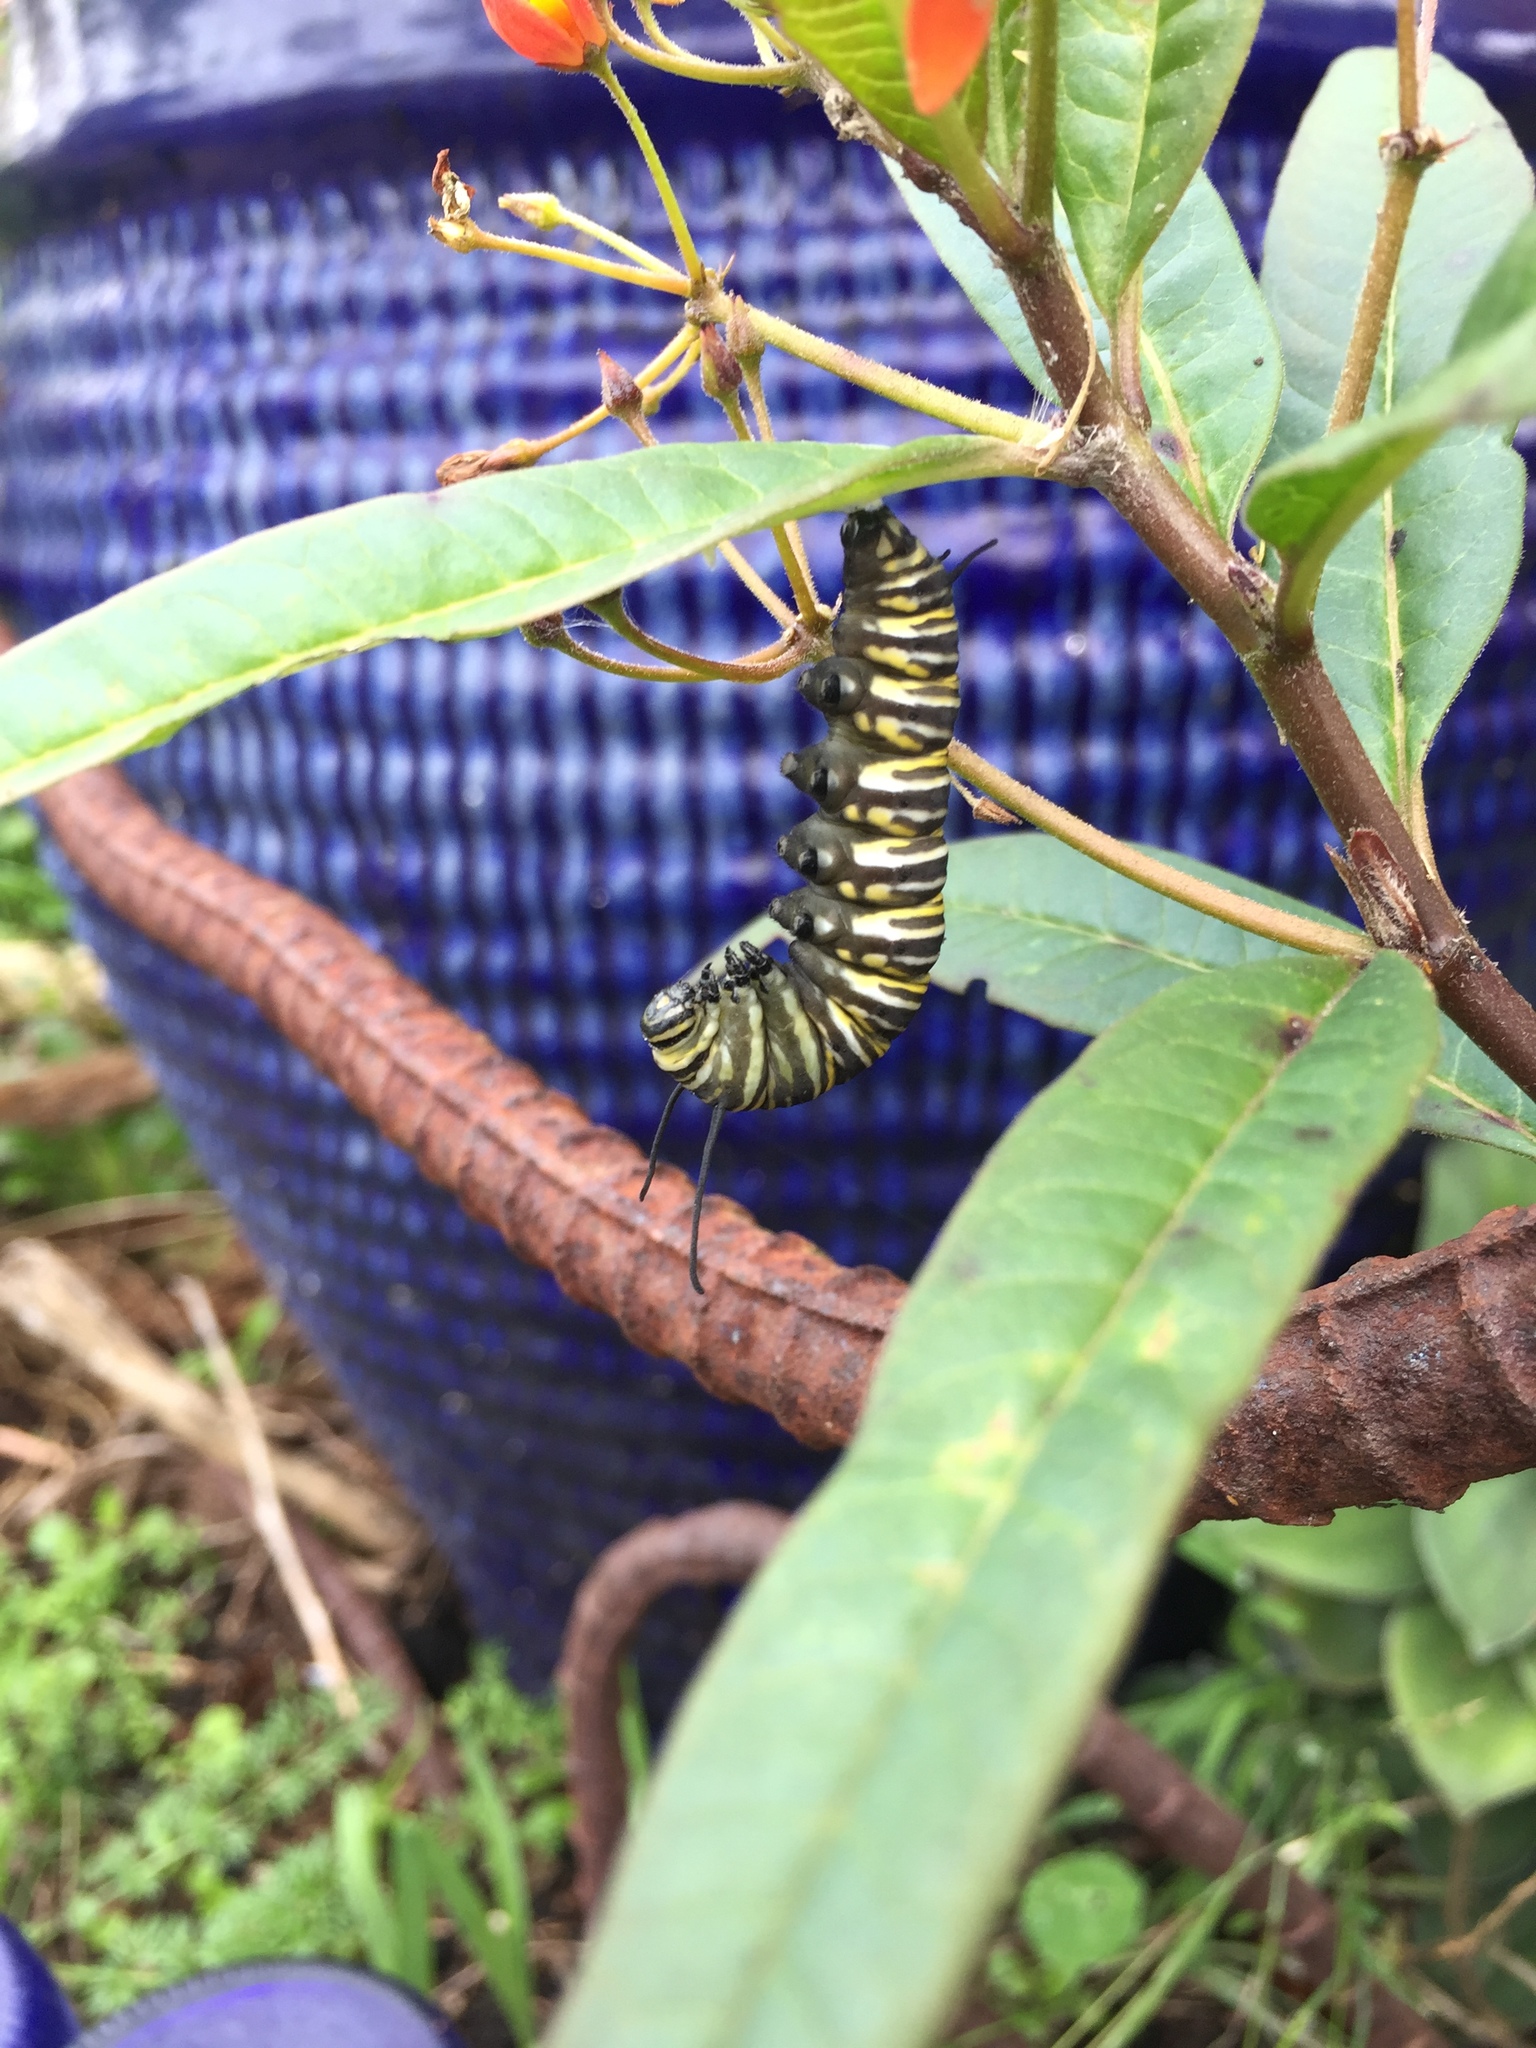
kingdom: Animalia
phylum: Arthropoda
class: Insecta
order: Lepidoptera
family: Nymphalidae
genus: Danaus
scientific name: Danaus plexippus
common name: Monarch
